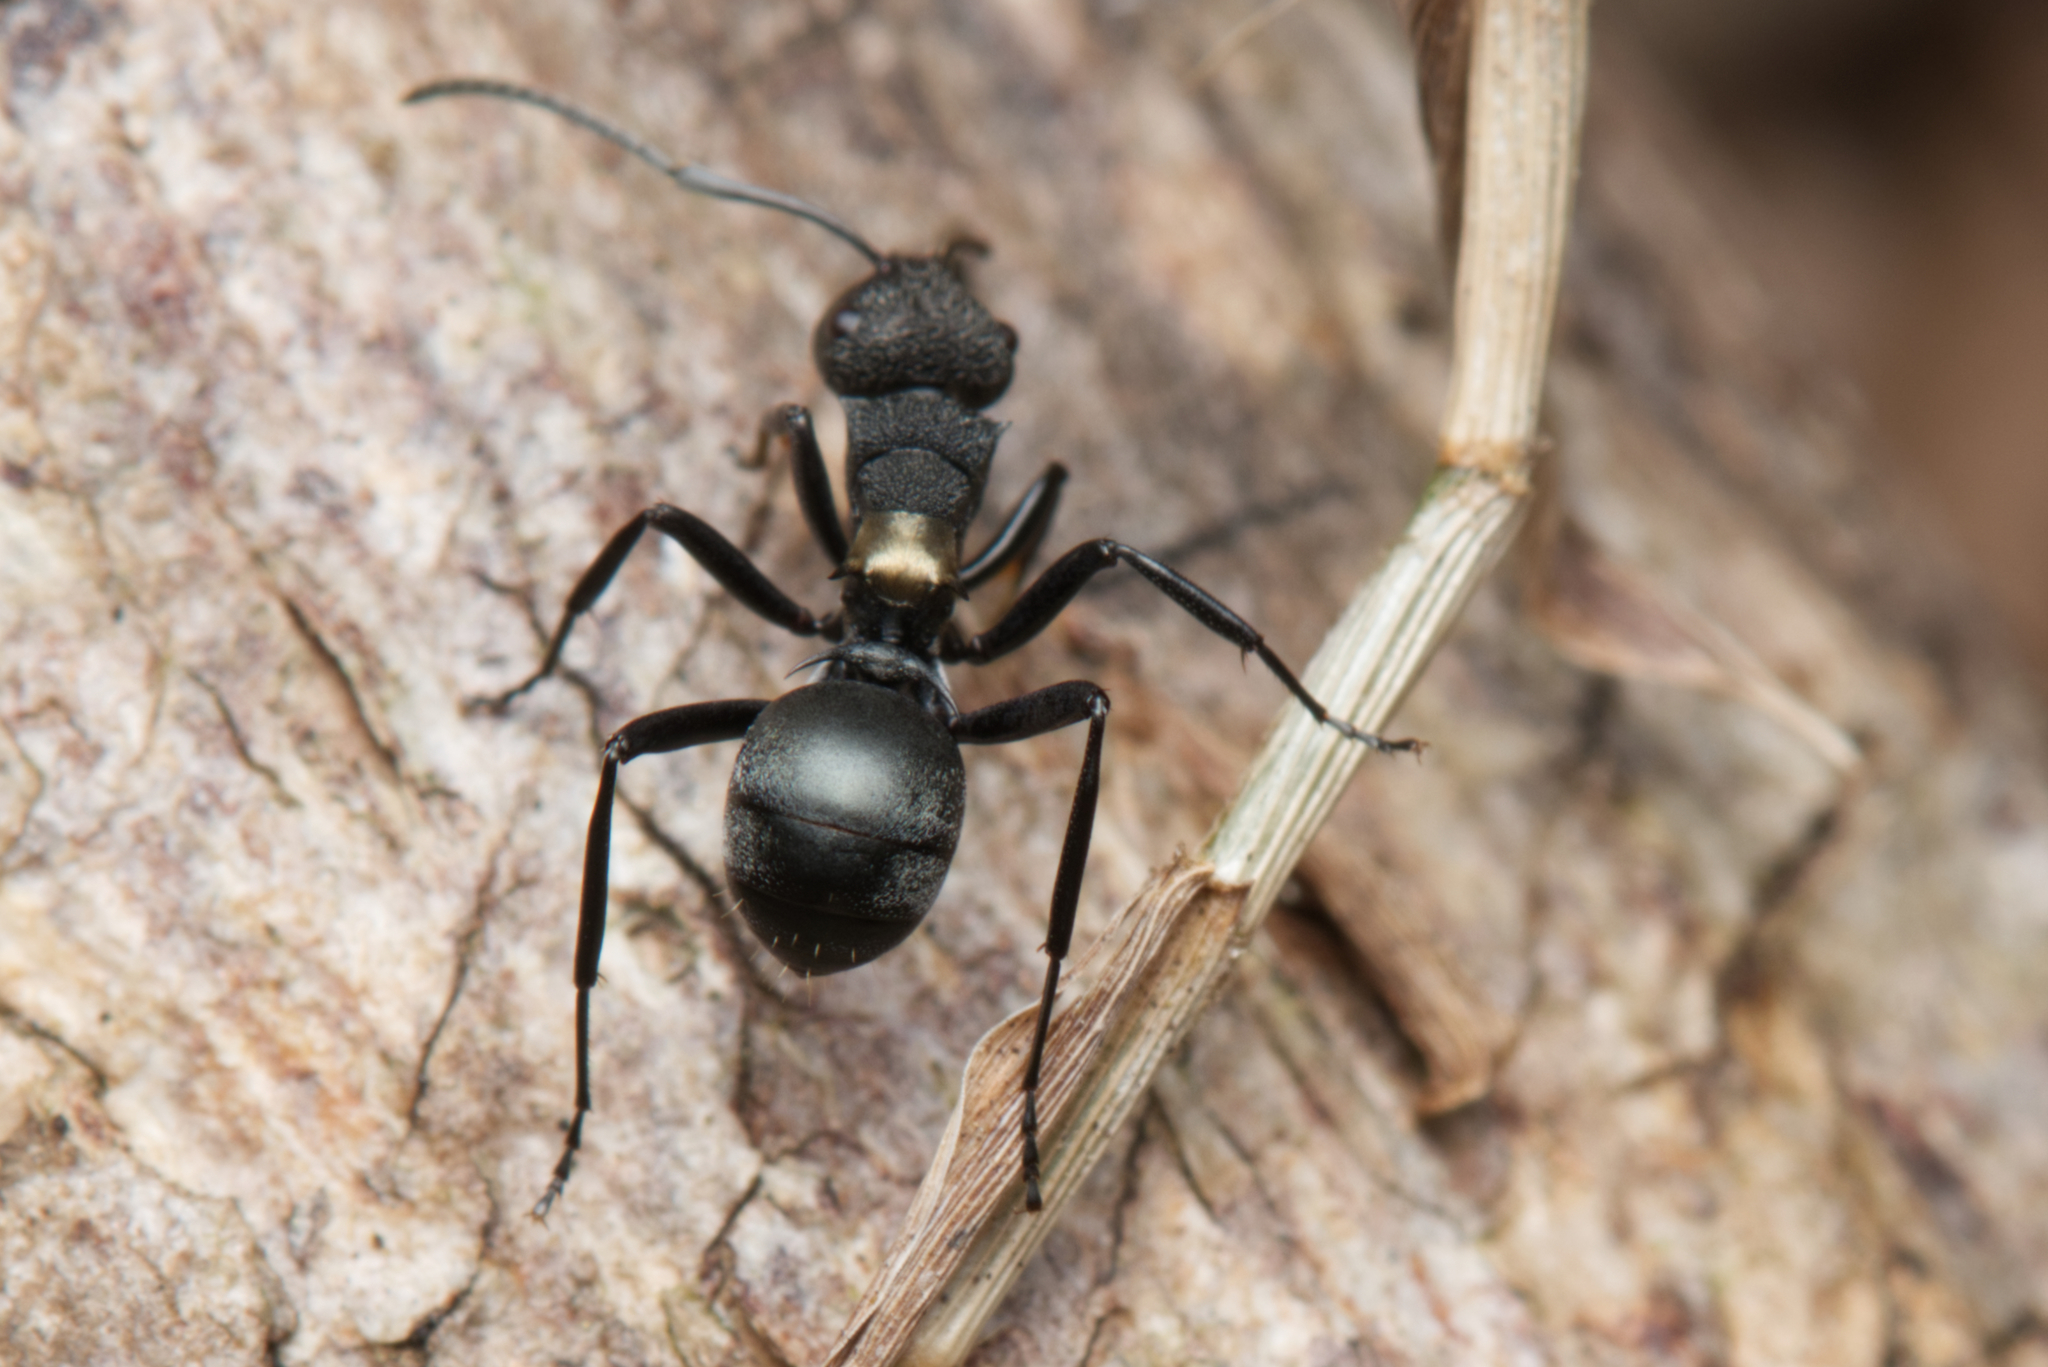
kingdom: Animalia
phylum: Arthropoda
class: Insecta
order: Hymenoptera
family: Formicidae
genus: Polyrhachis
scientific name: Polyrhachis machaon
